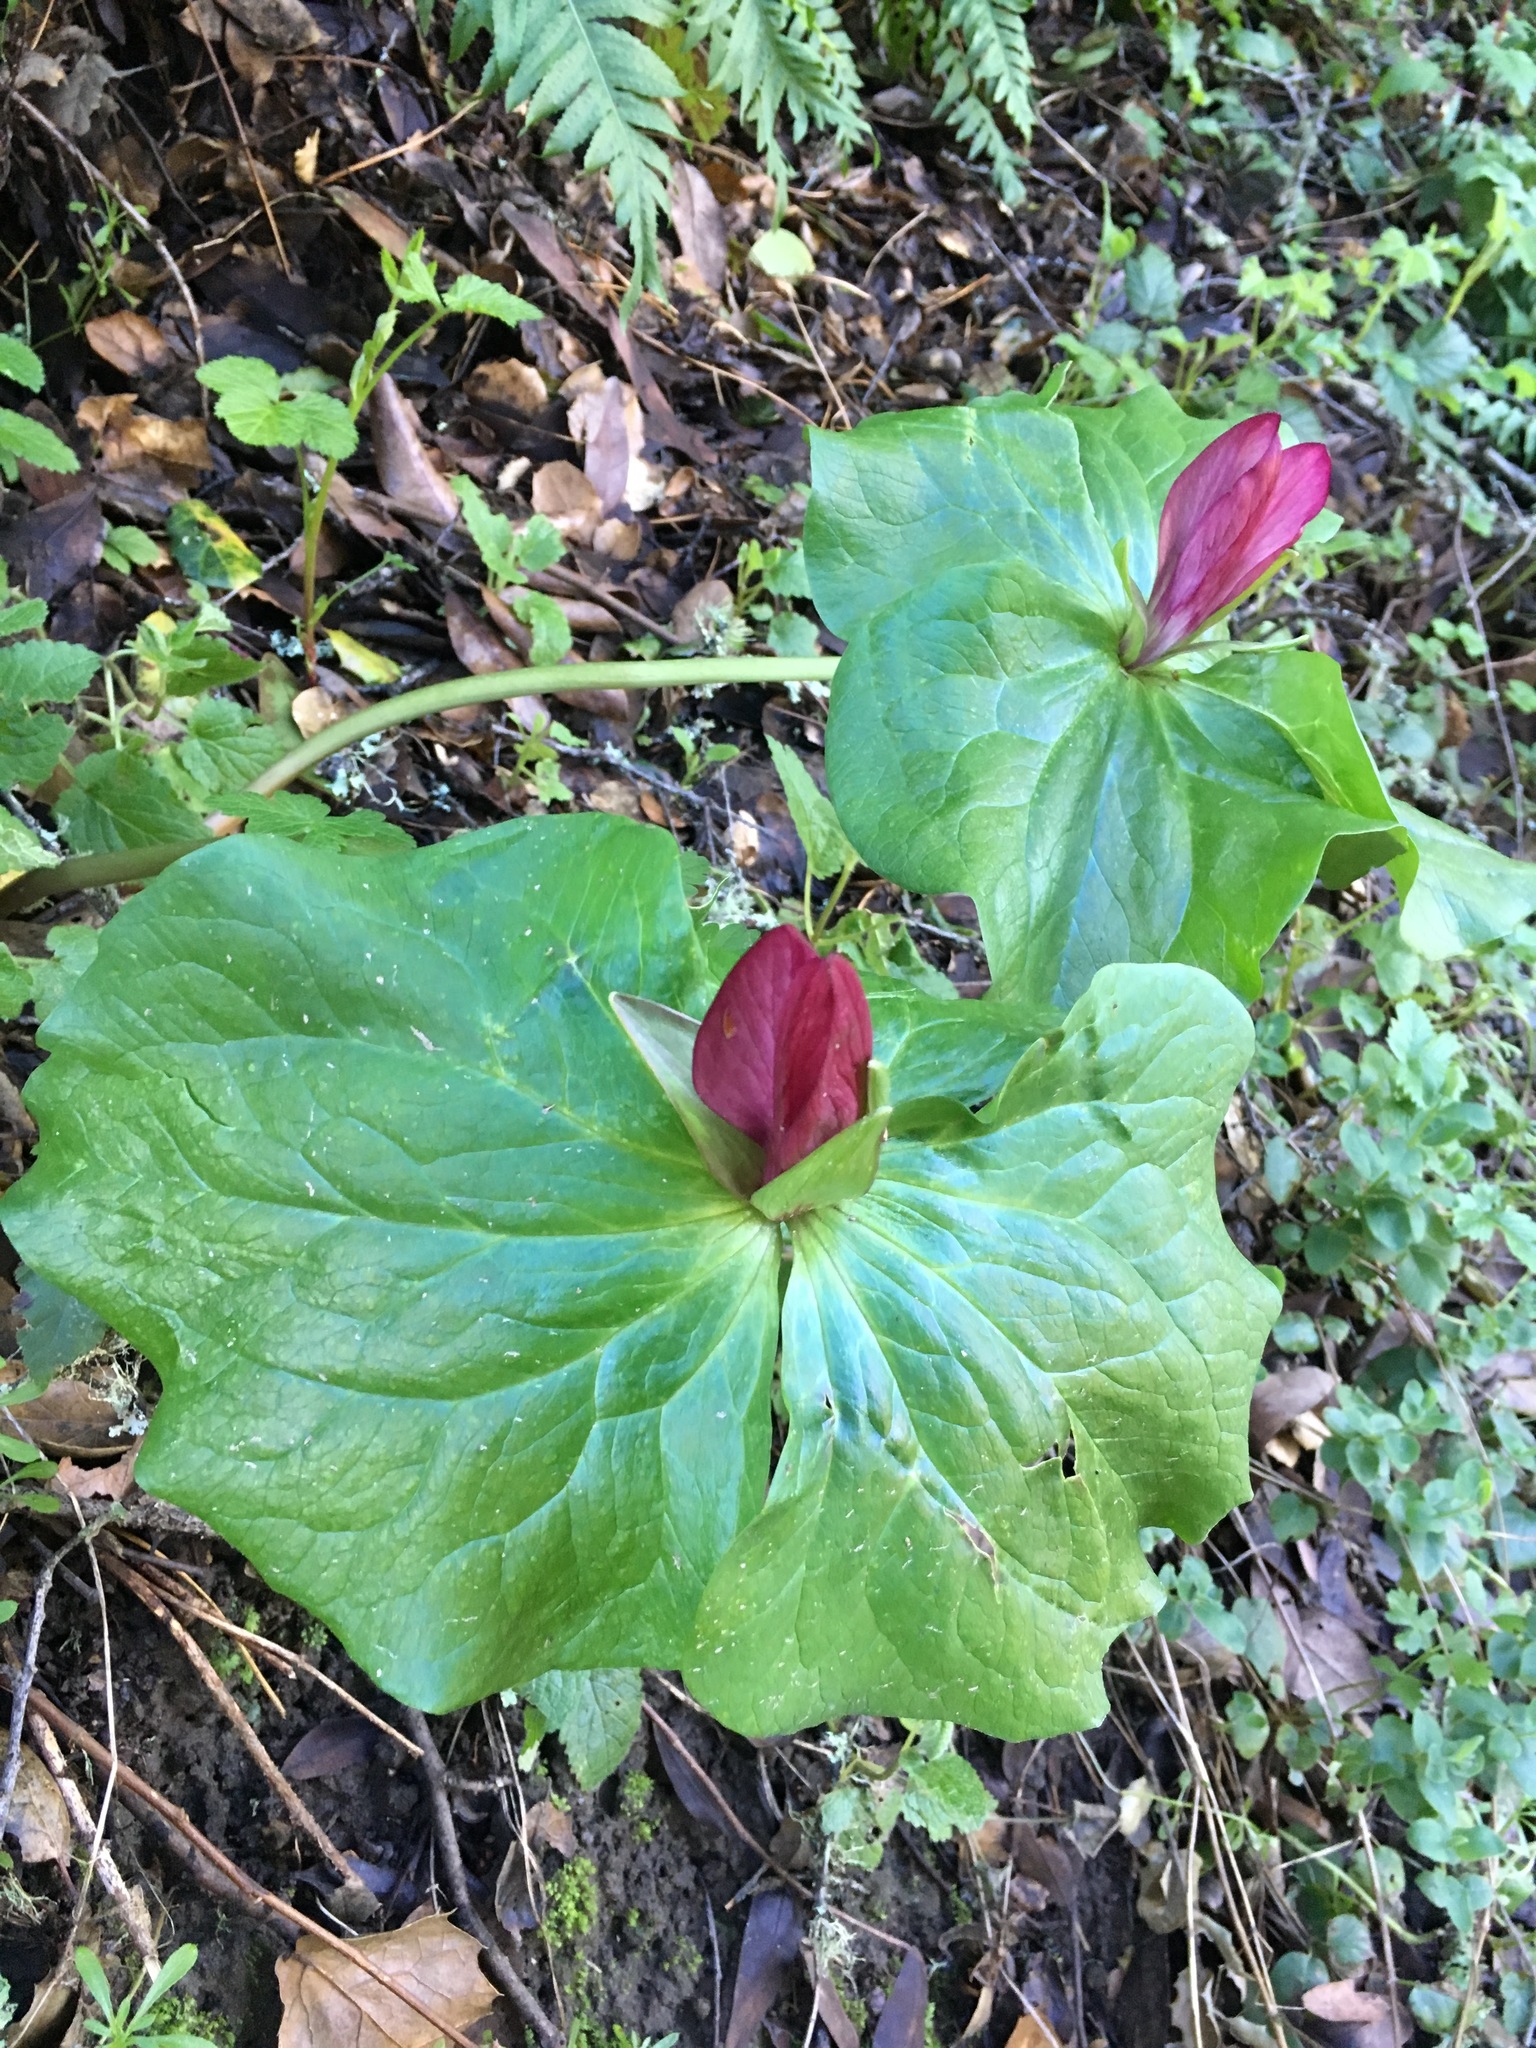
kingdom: Plantae
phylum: Tracheophyta
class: Liliopsida
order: Liliales
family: Melanthiaceae
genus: Trillium
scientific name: Trillium chloropetalum
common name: Giant trillium
